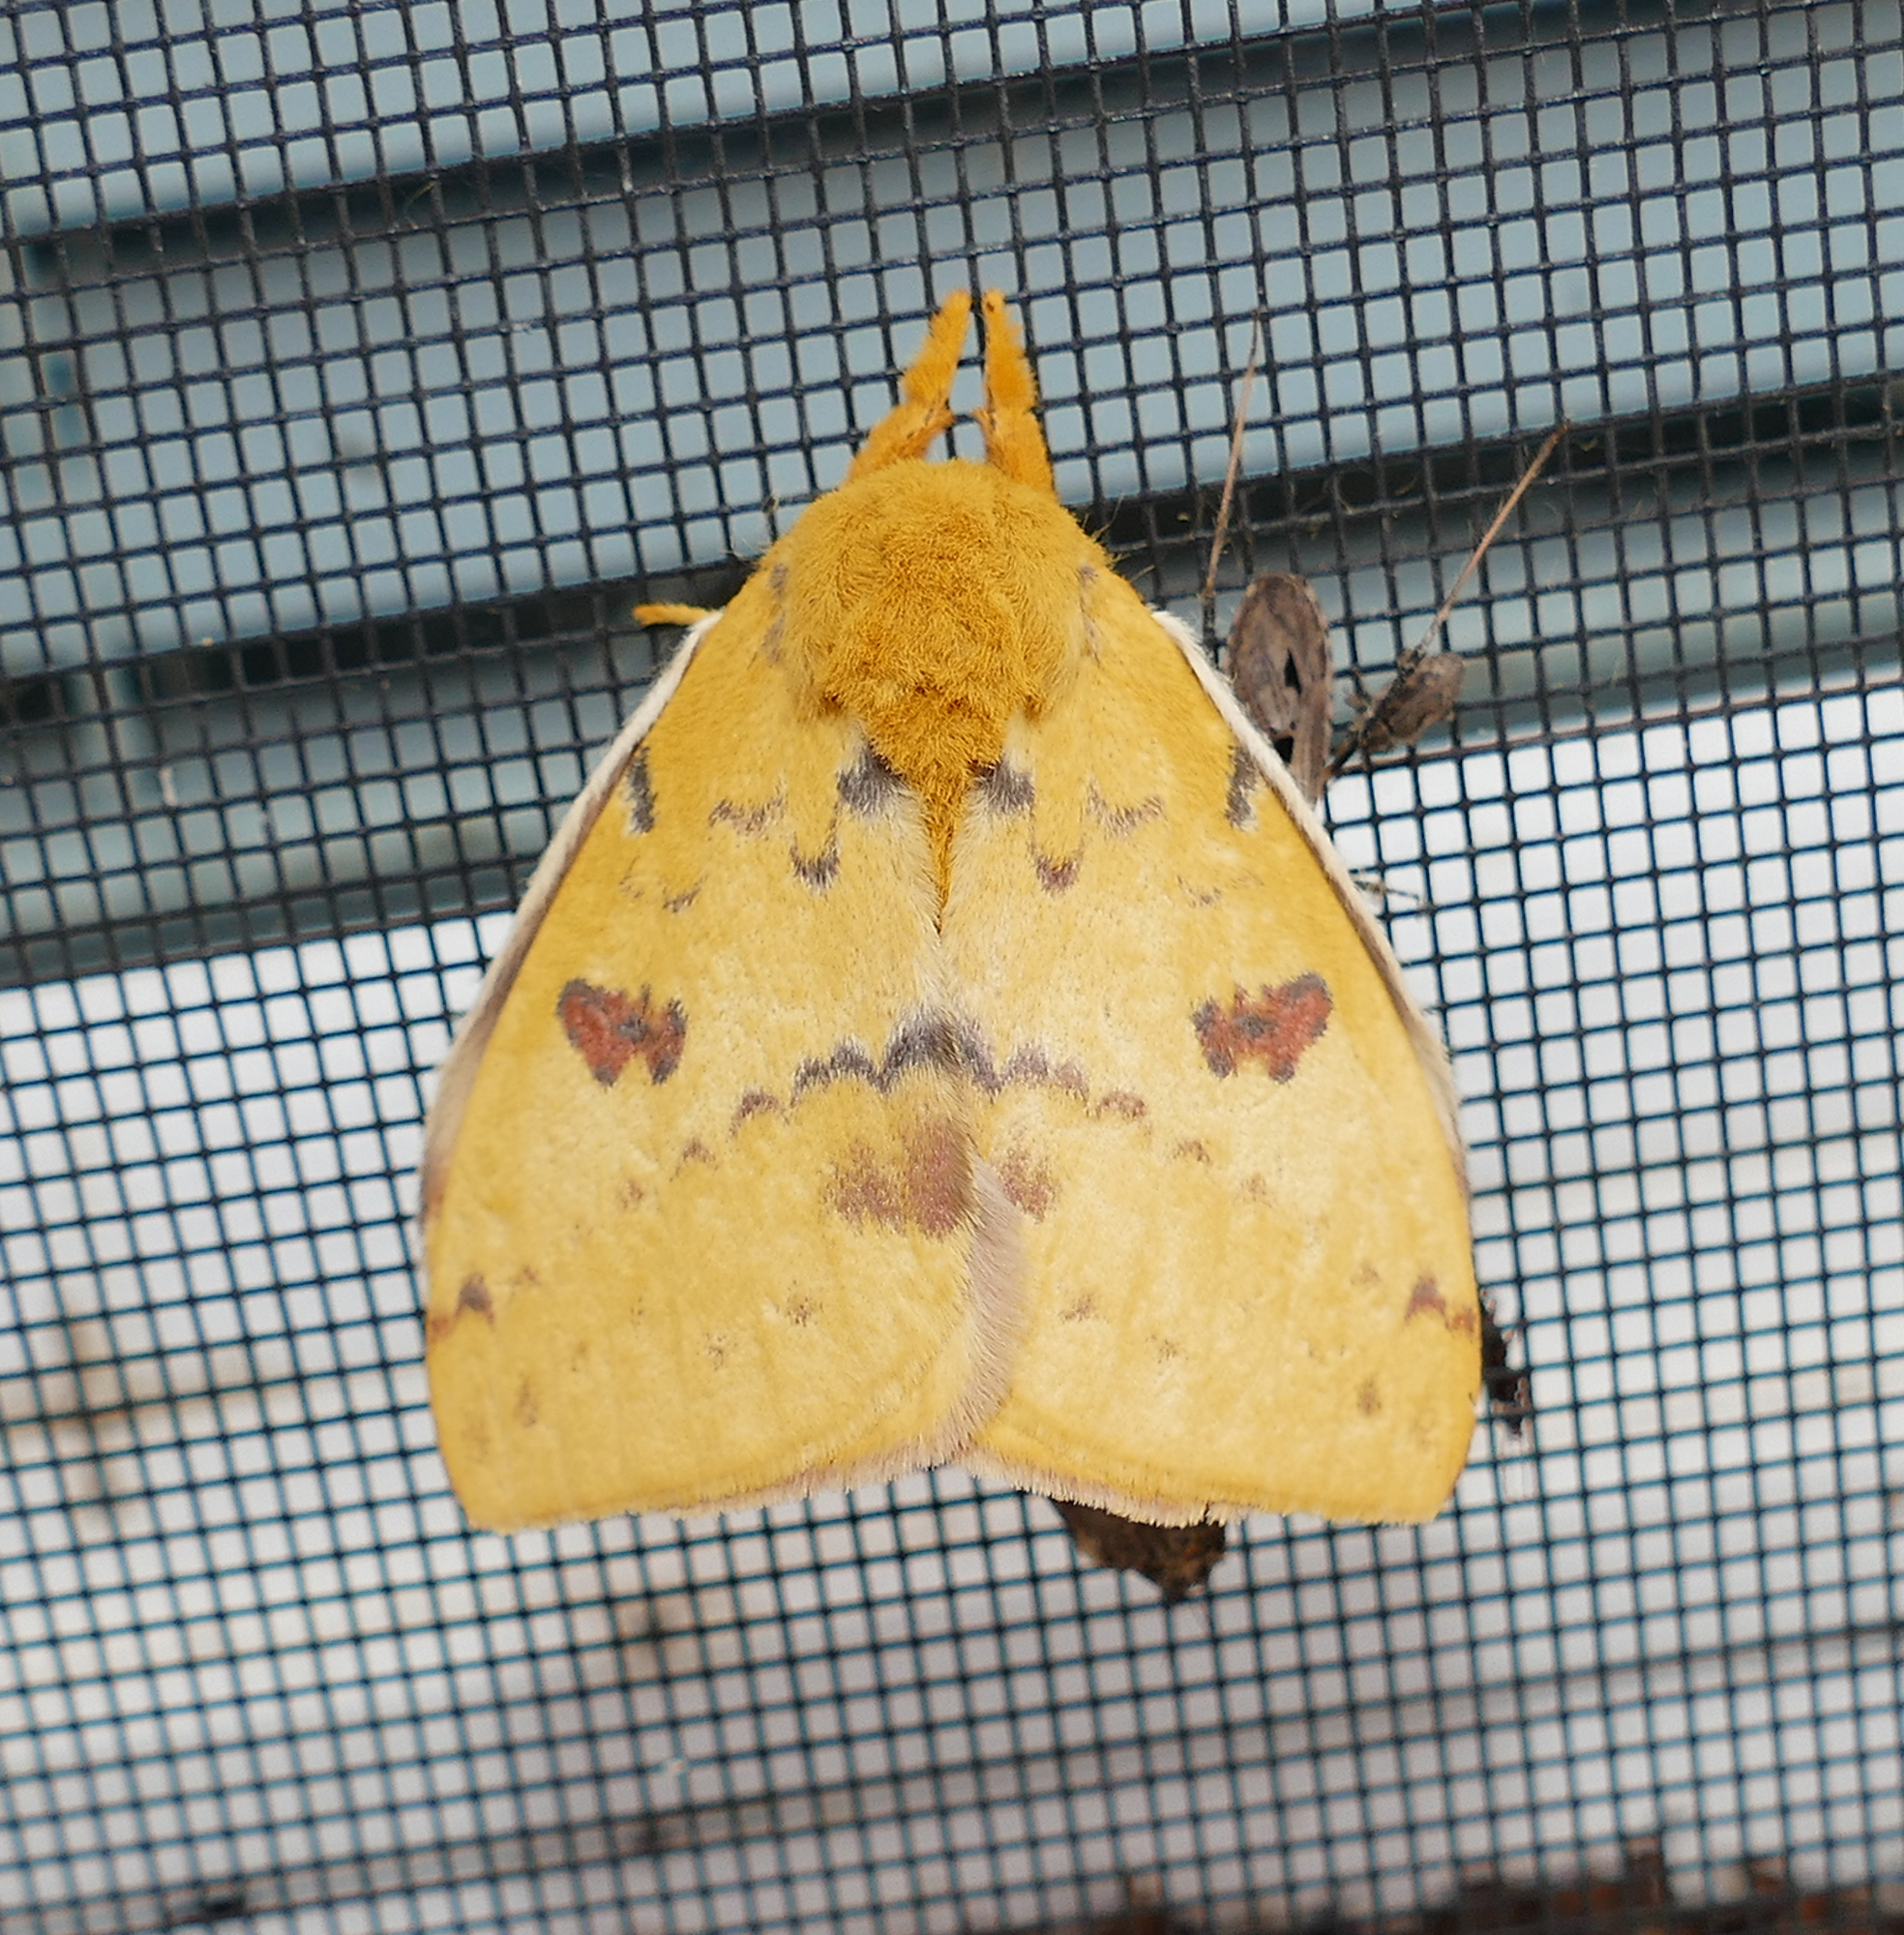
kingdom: Animalia
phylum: Arthropoda
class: Insecta
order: Lepidoptera
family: Saturniidae
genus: Automeris
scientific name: Automeris io
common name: Io moth
